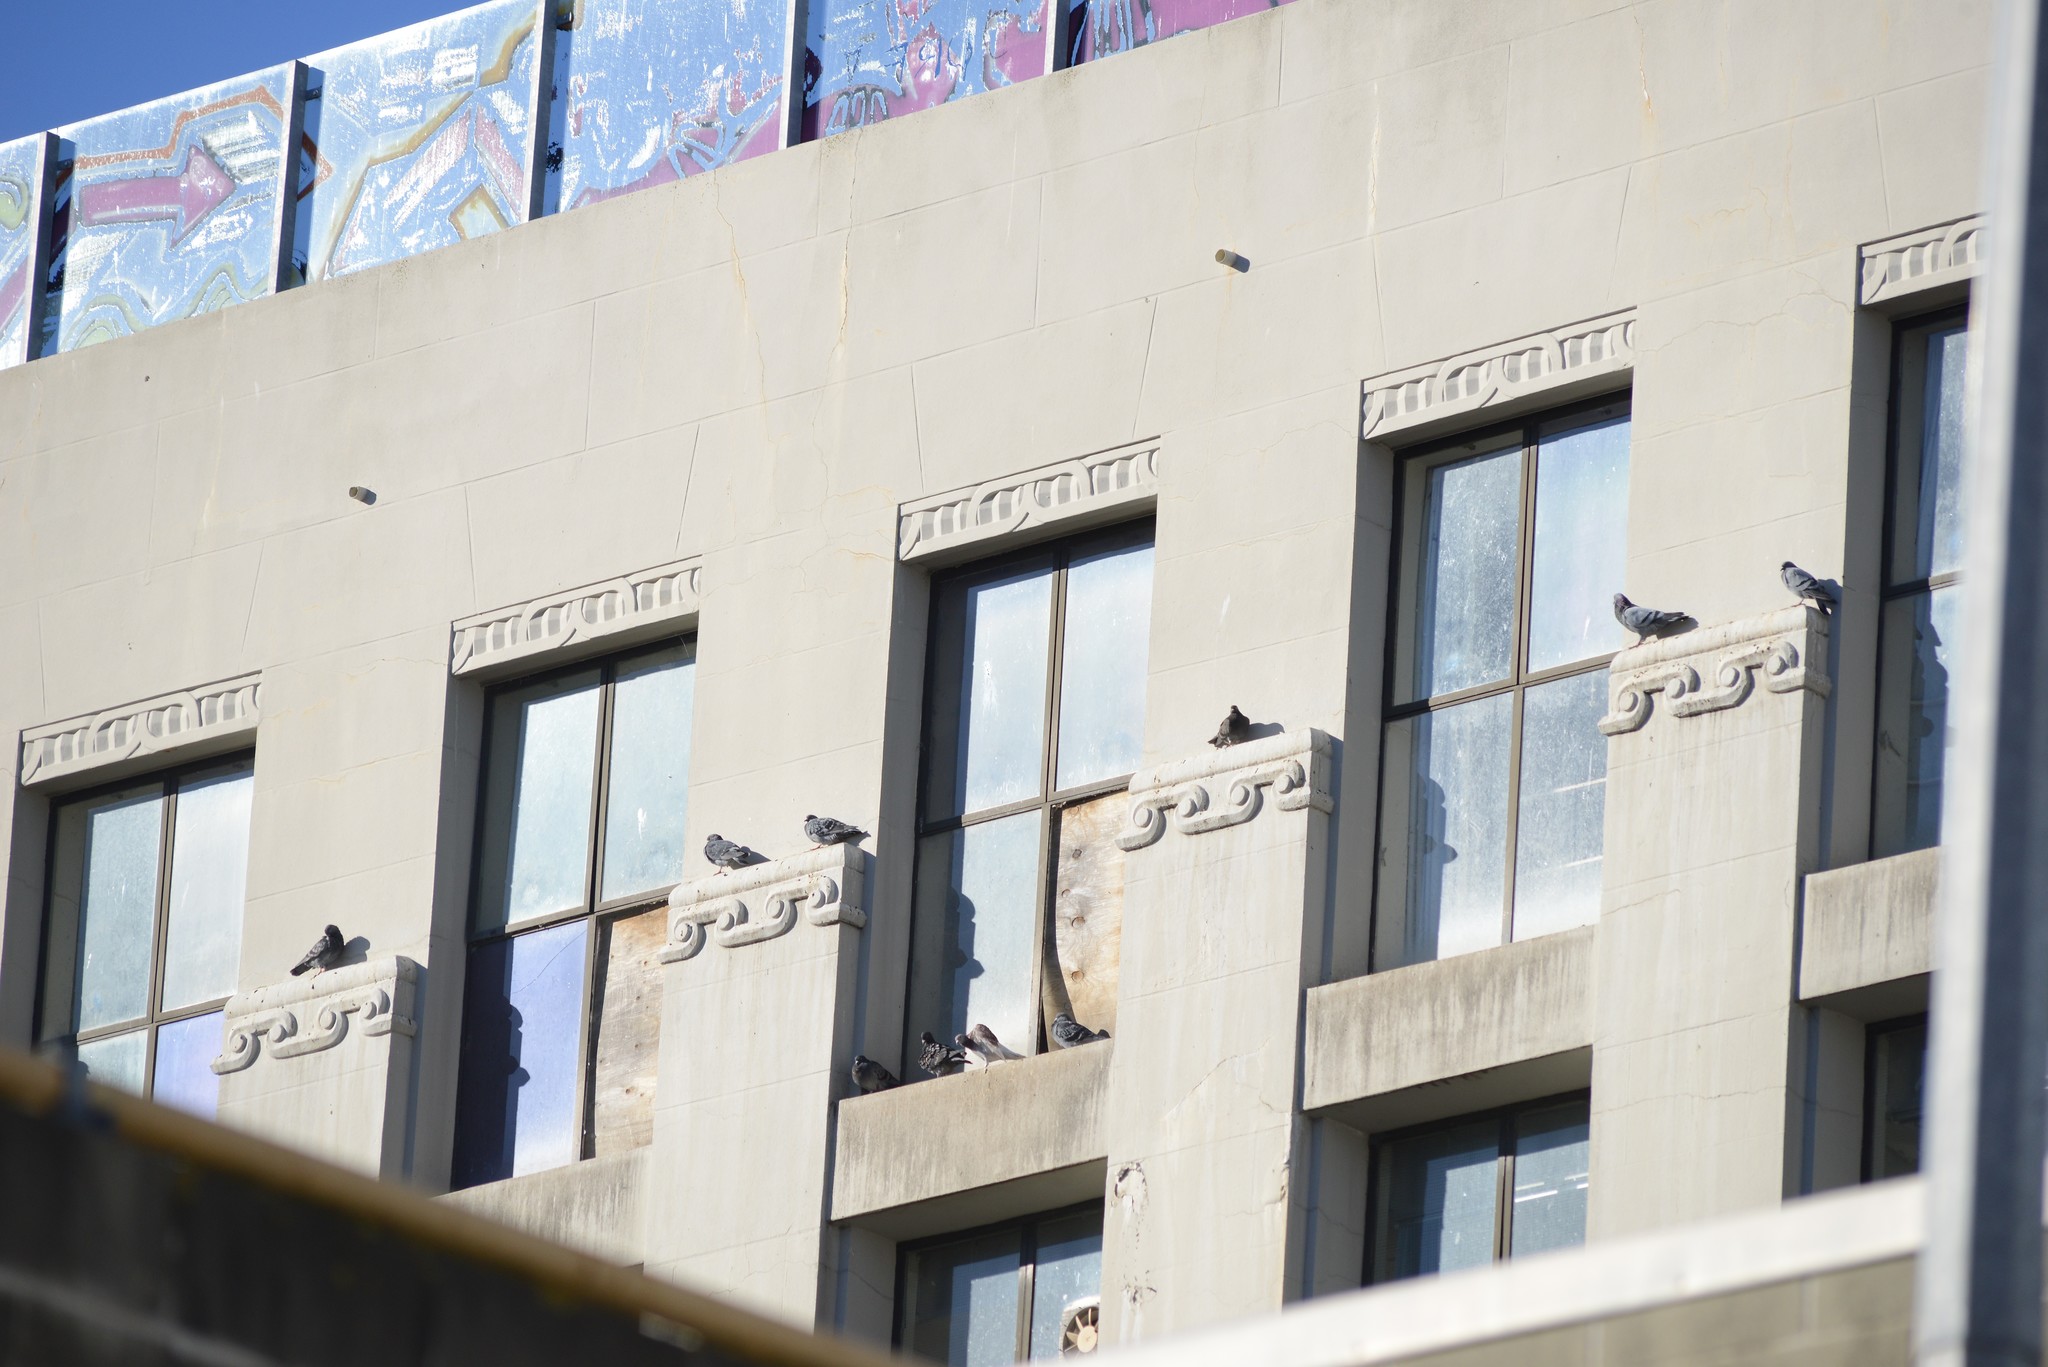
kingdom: Animalia
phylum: Chordata
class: Aves
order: Columbiformes
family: Columbidae
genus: Columba
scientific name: Columba livia
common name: Rock pigeon
